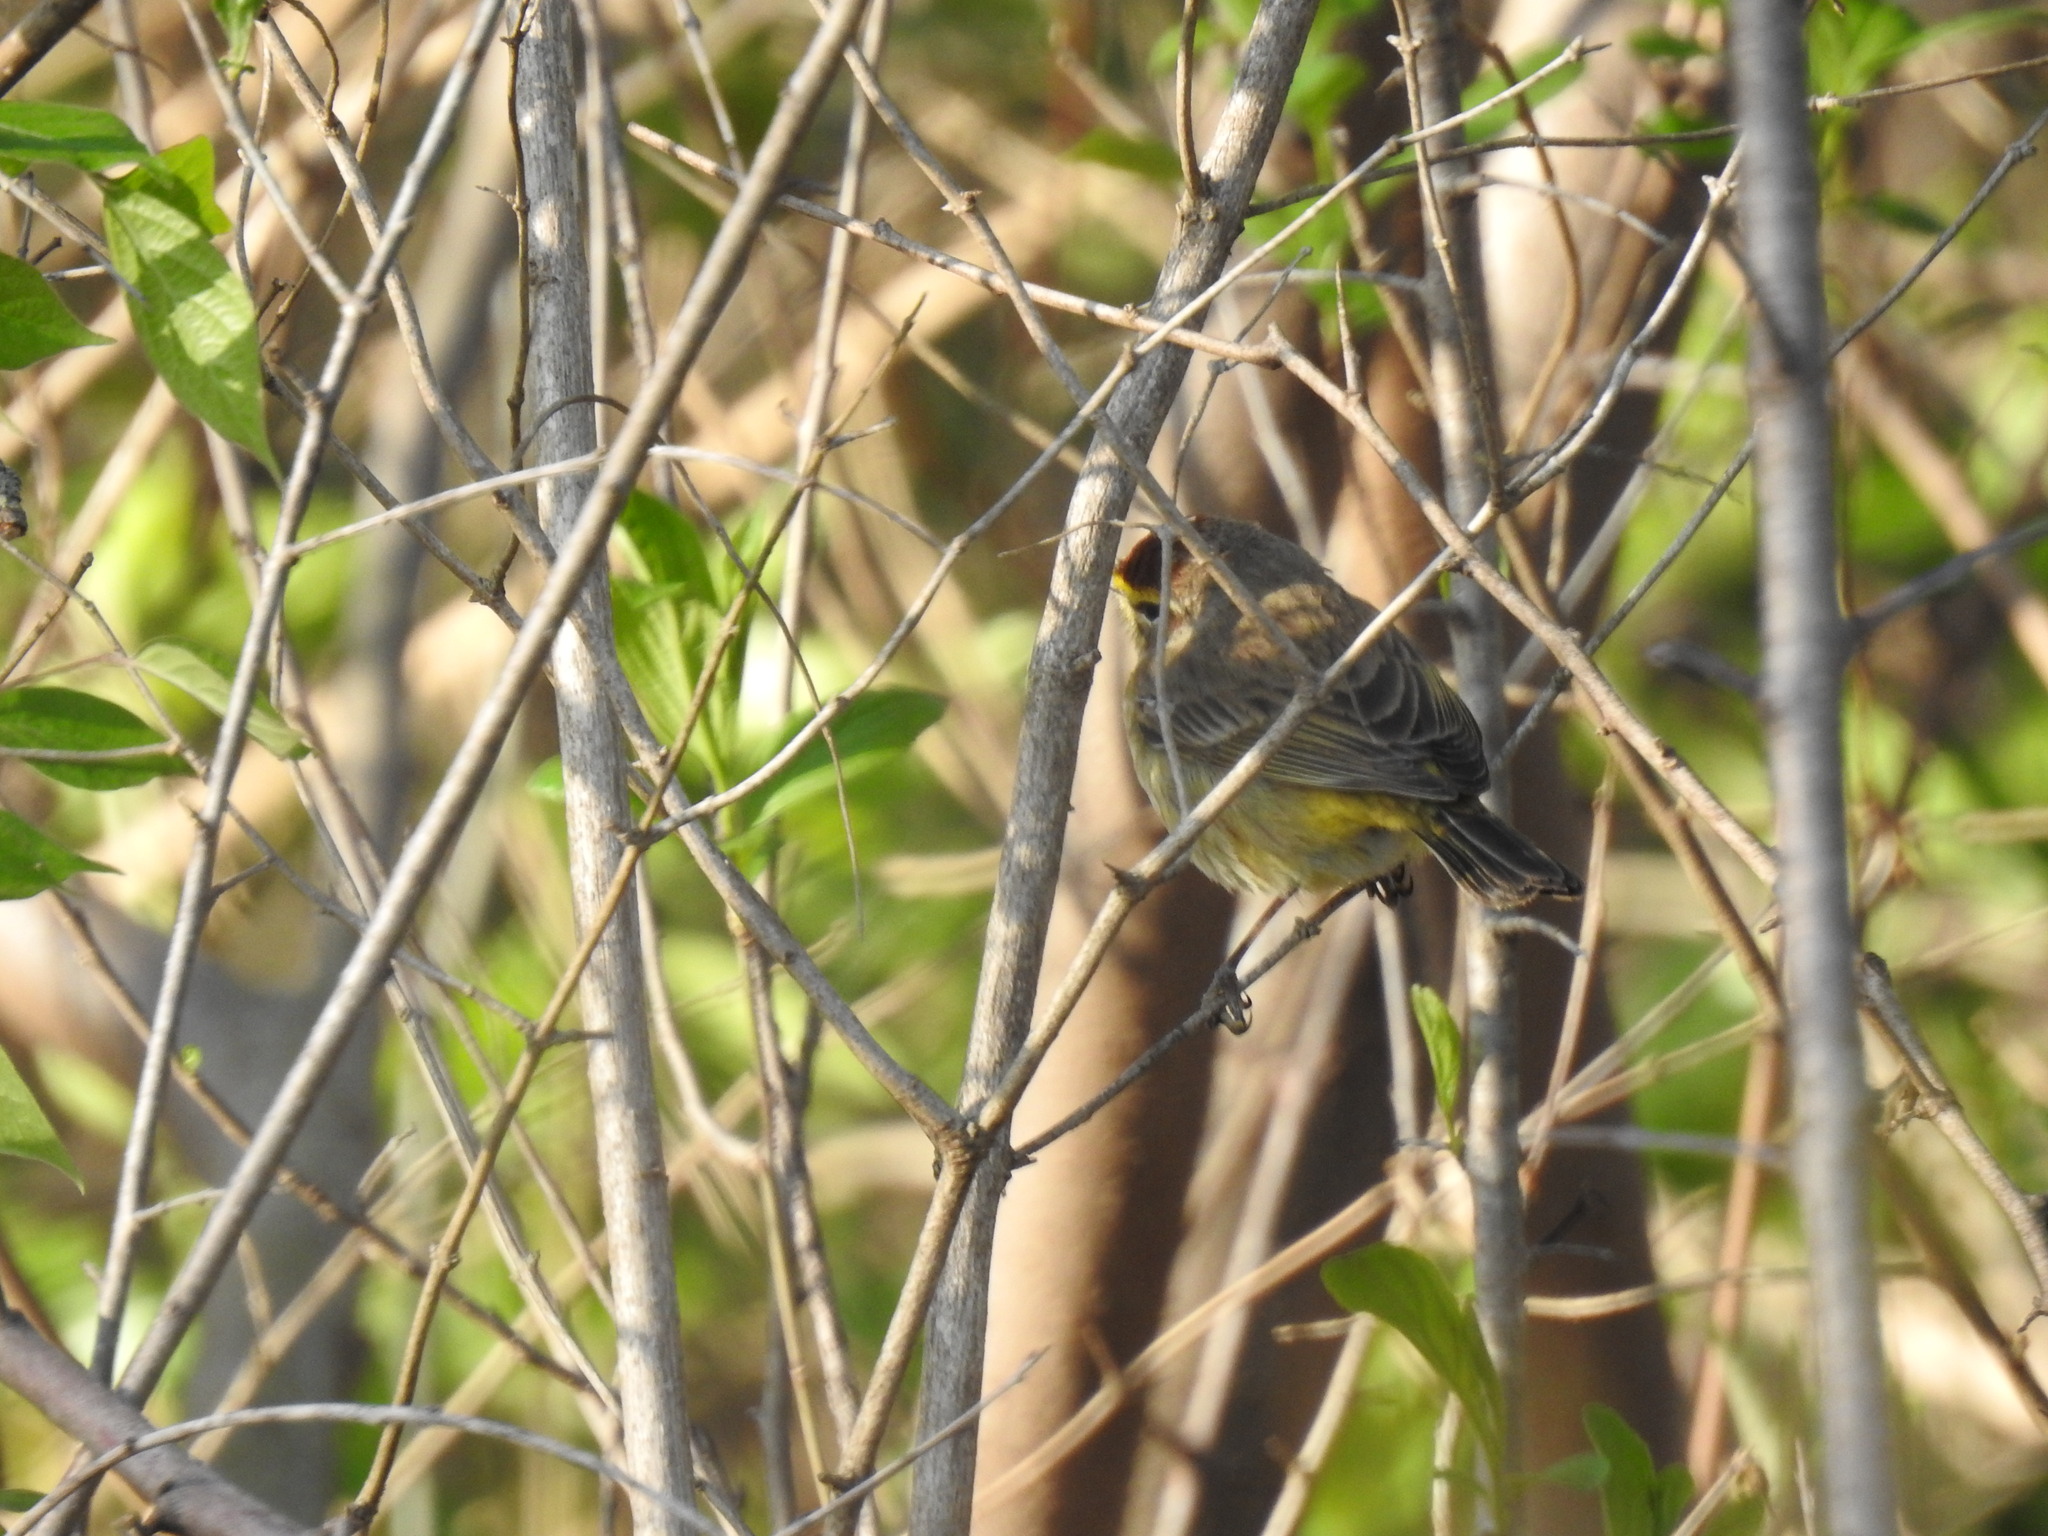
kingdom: Animalia
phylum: Chordata
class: Aves
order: Passeriformes
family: Parulidae
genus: Setophaga
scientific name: Setophaga palmarum
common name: Palm warbler
